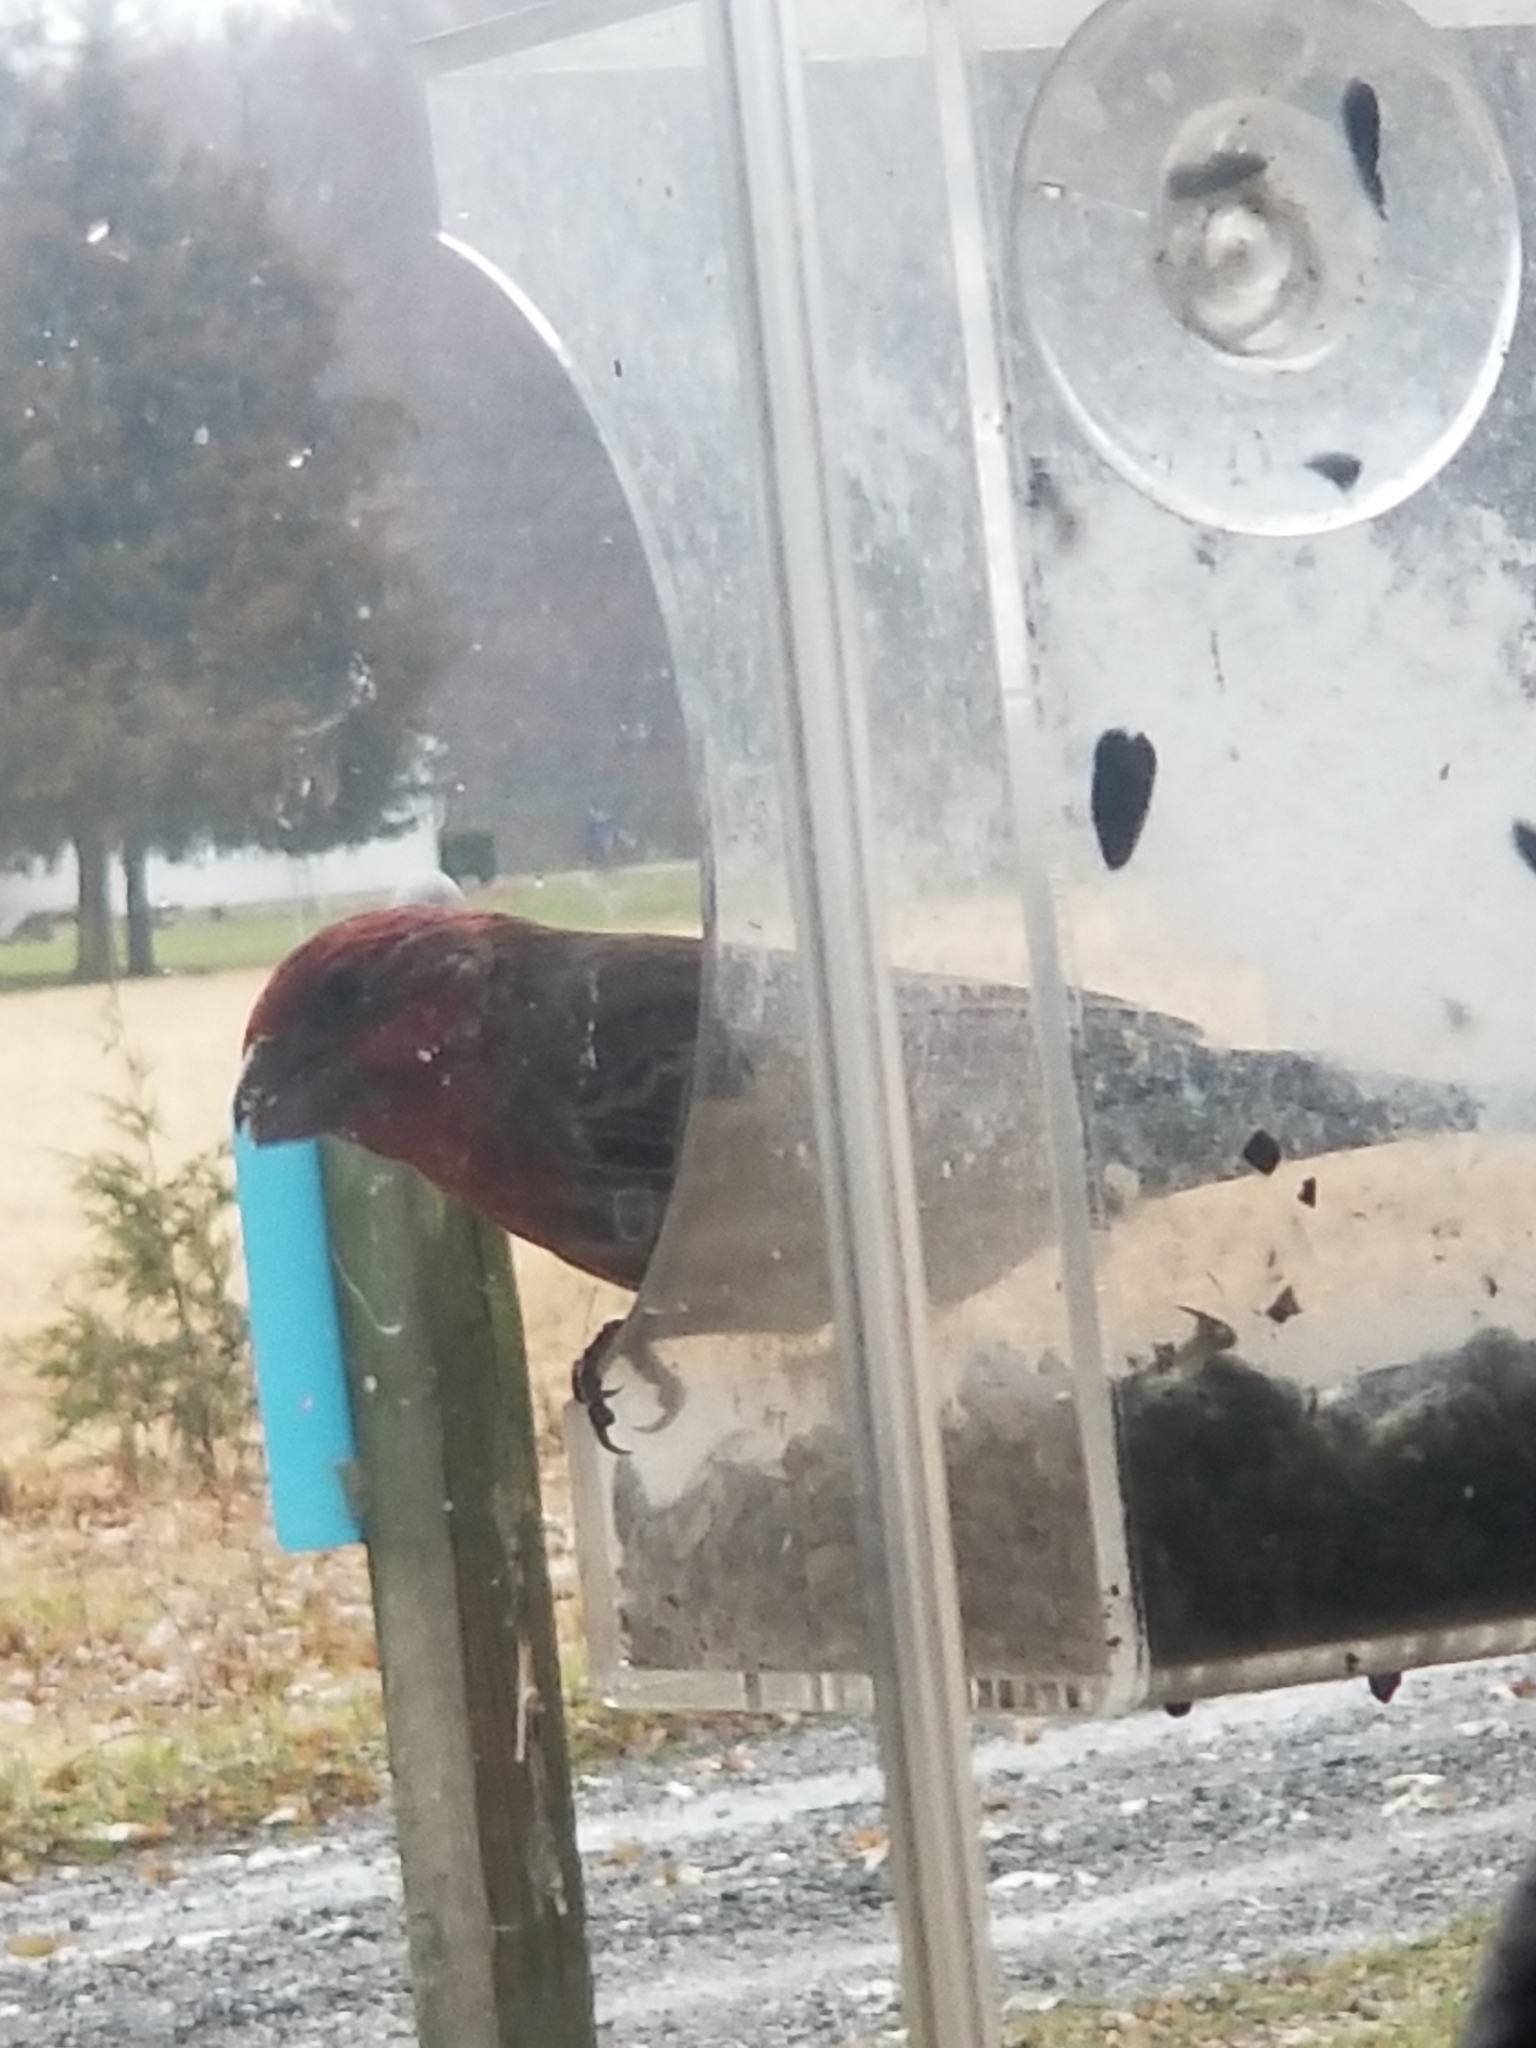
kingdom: Animalia
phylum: Chordata
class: Aves
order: Passeriformes
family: Fringillidae
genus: Haemorhous
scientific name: Haemorhous mexicanus
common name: House finch
